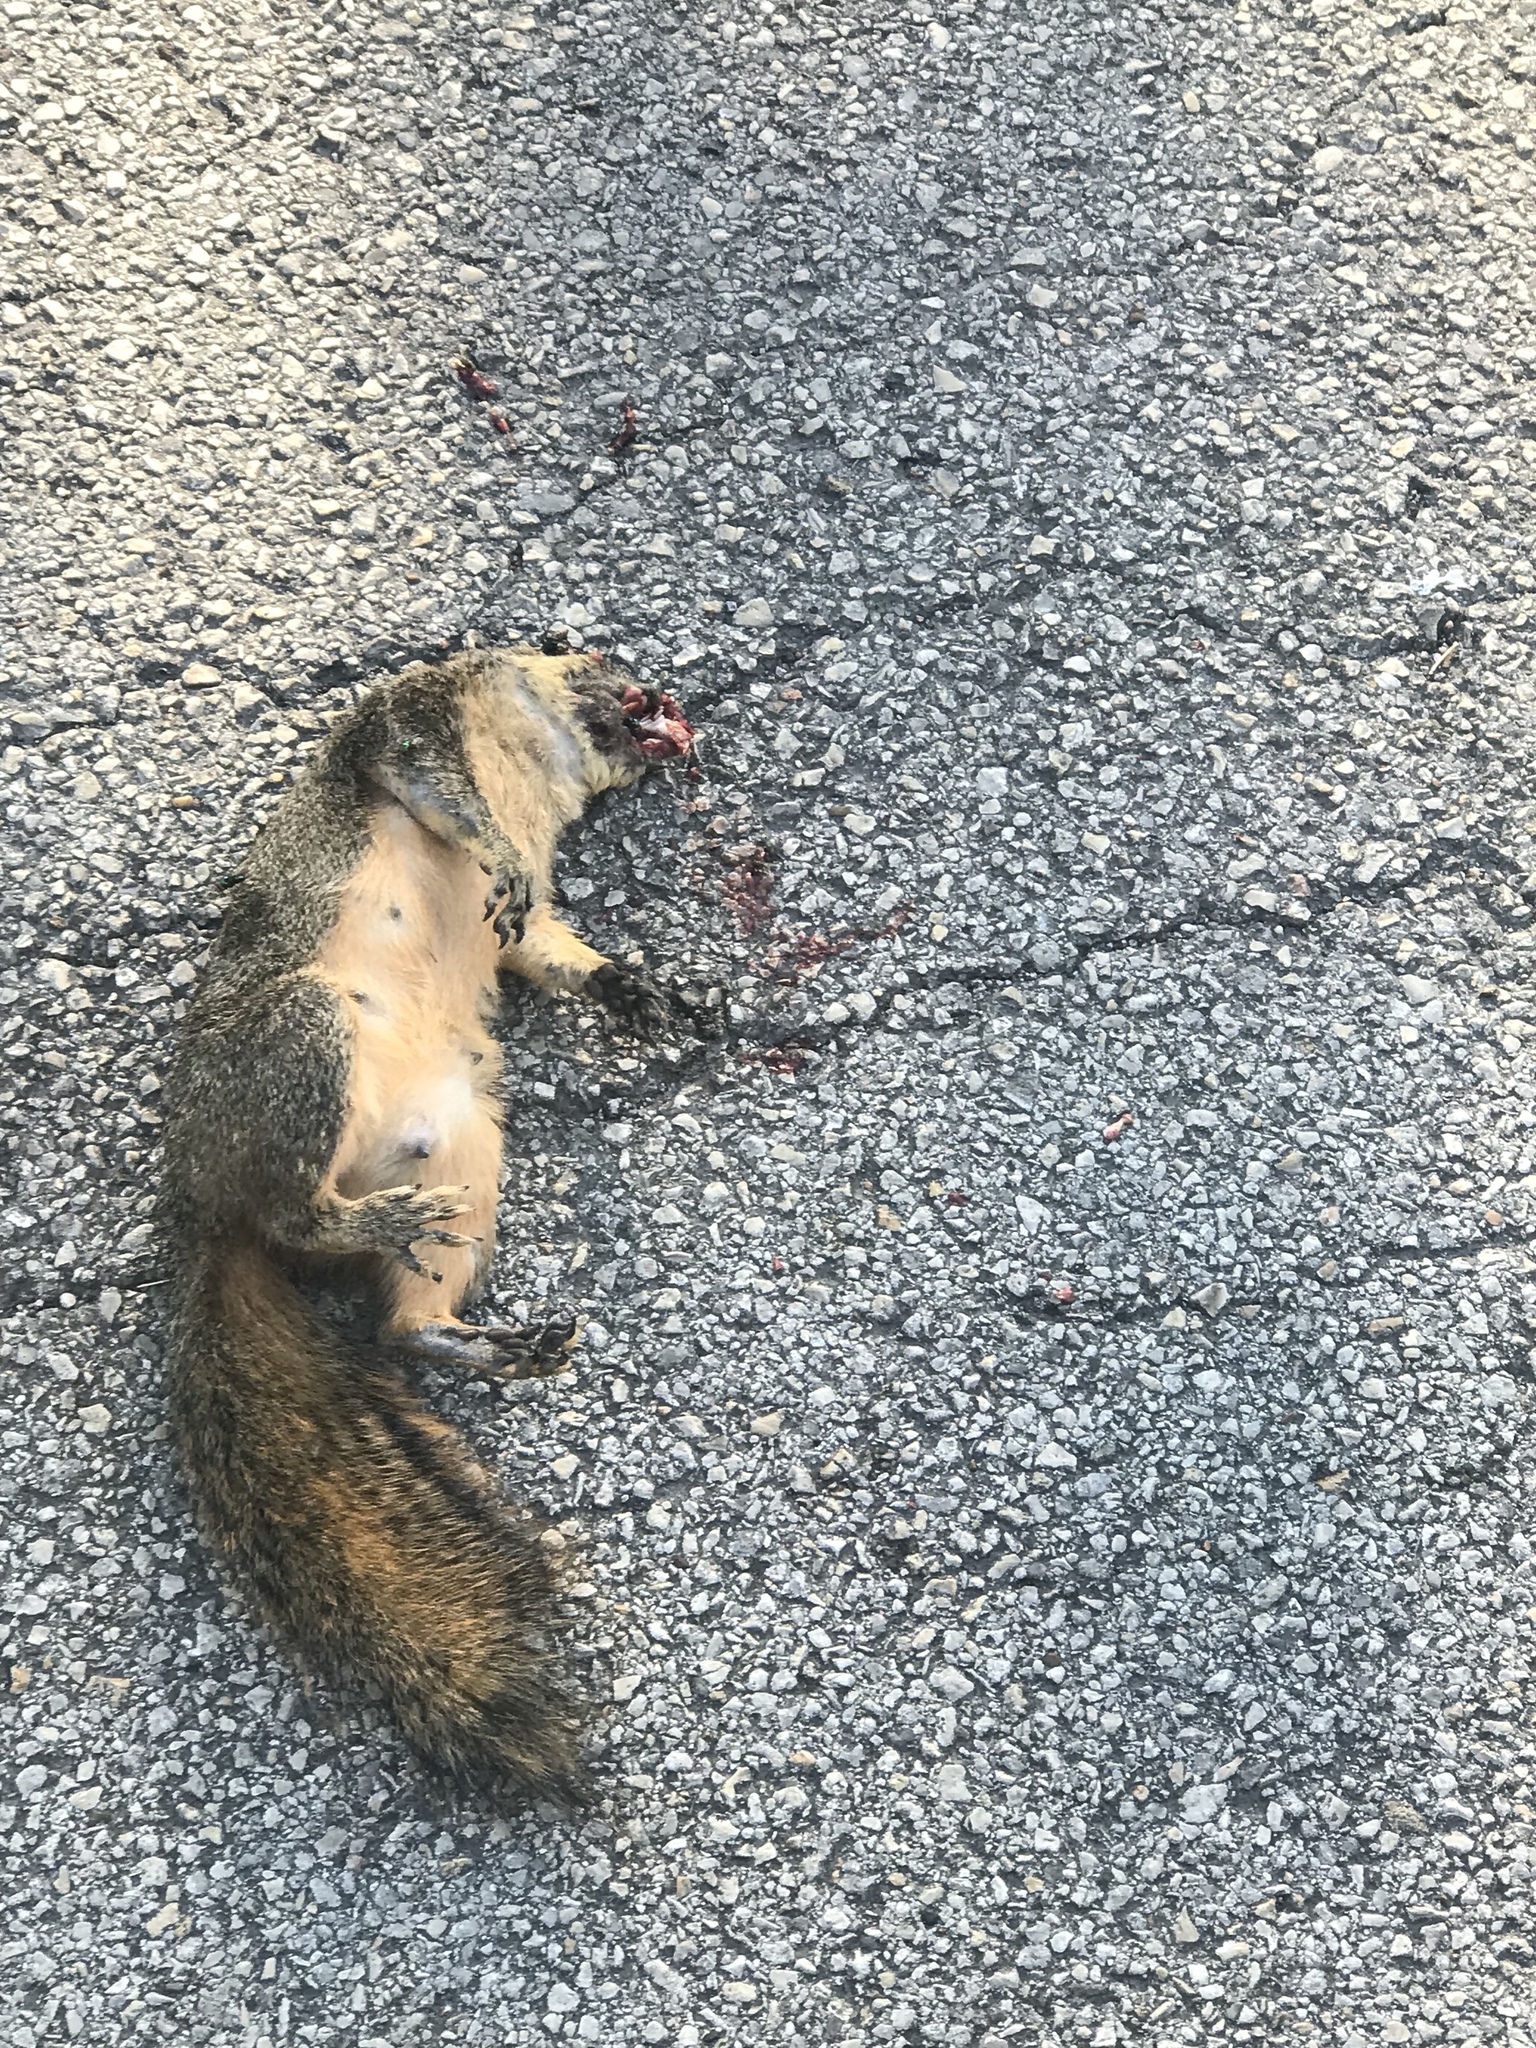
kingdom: Animalia
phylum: Chordata
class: Mammalia
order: Rodentia
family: Sciuridae
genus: Sciurus
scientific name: Sciurus niger
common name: Fox squirrel
